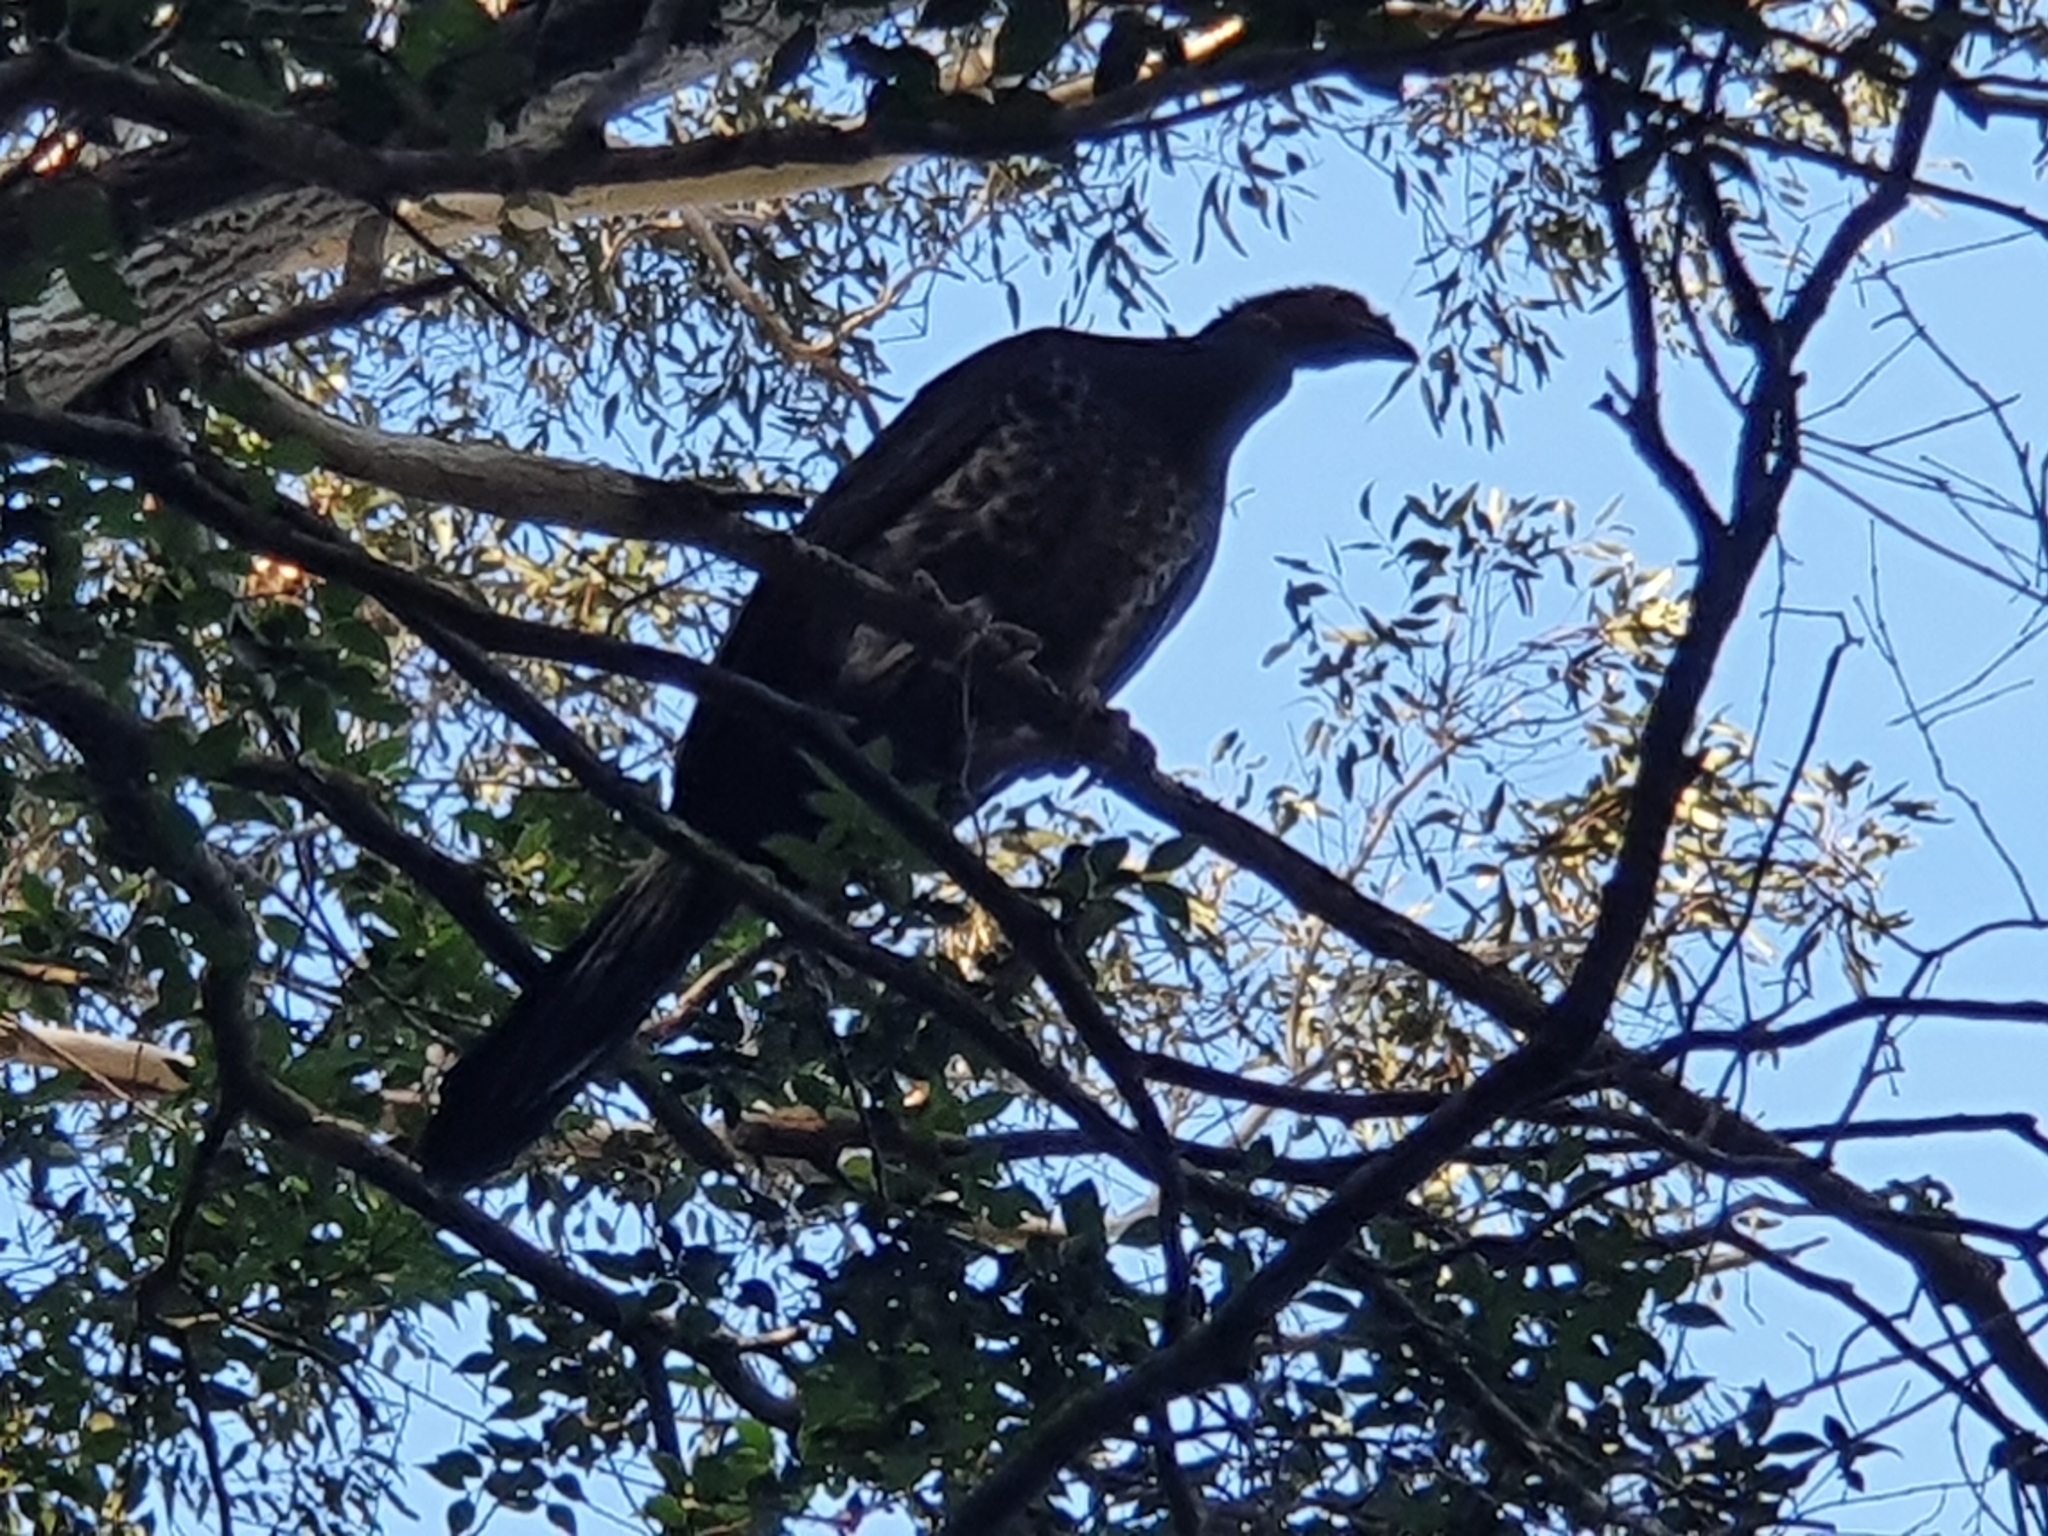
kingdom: Animalia
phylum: Chordata
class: Aves
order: Galliformes
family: Megapodiidae
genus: Alectura
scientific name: Alectura lathami
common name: Australian brushturkey
